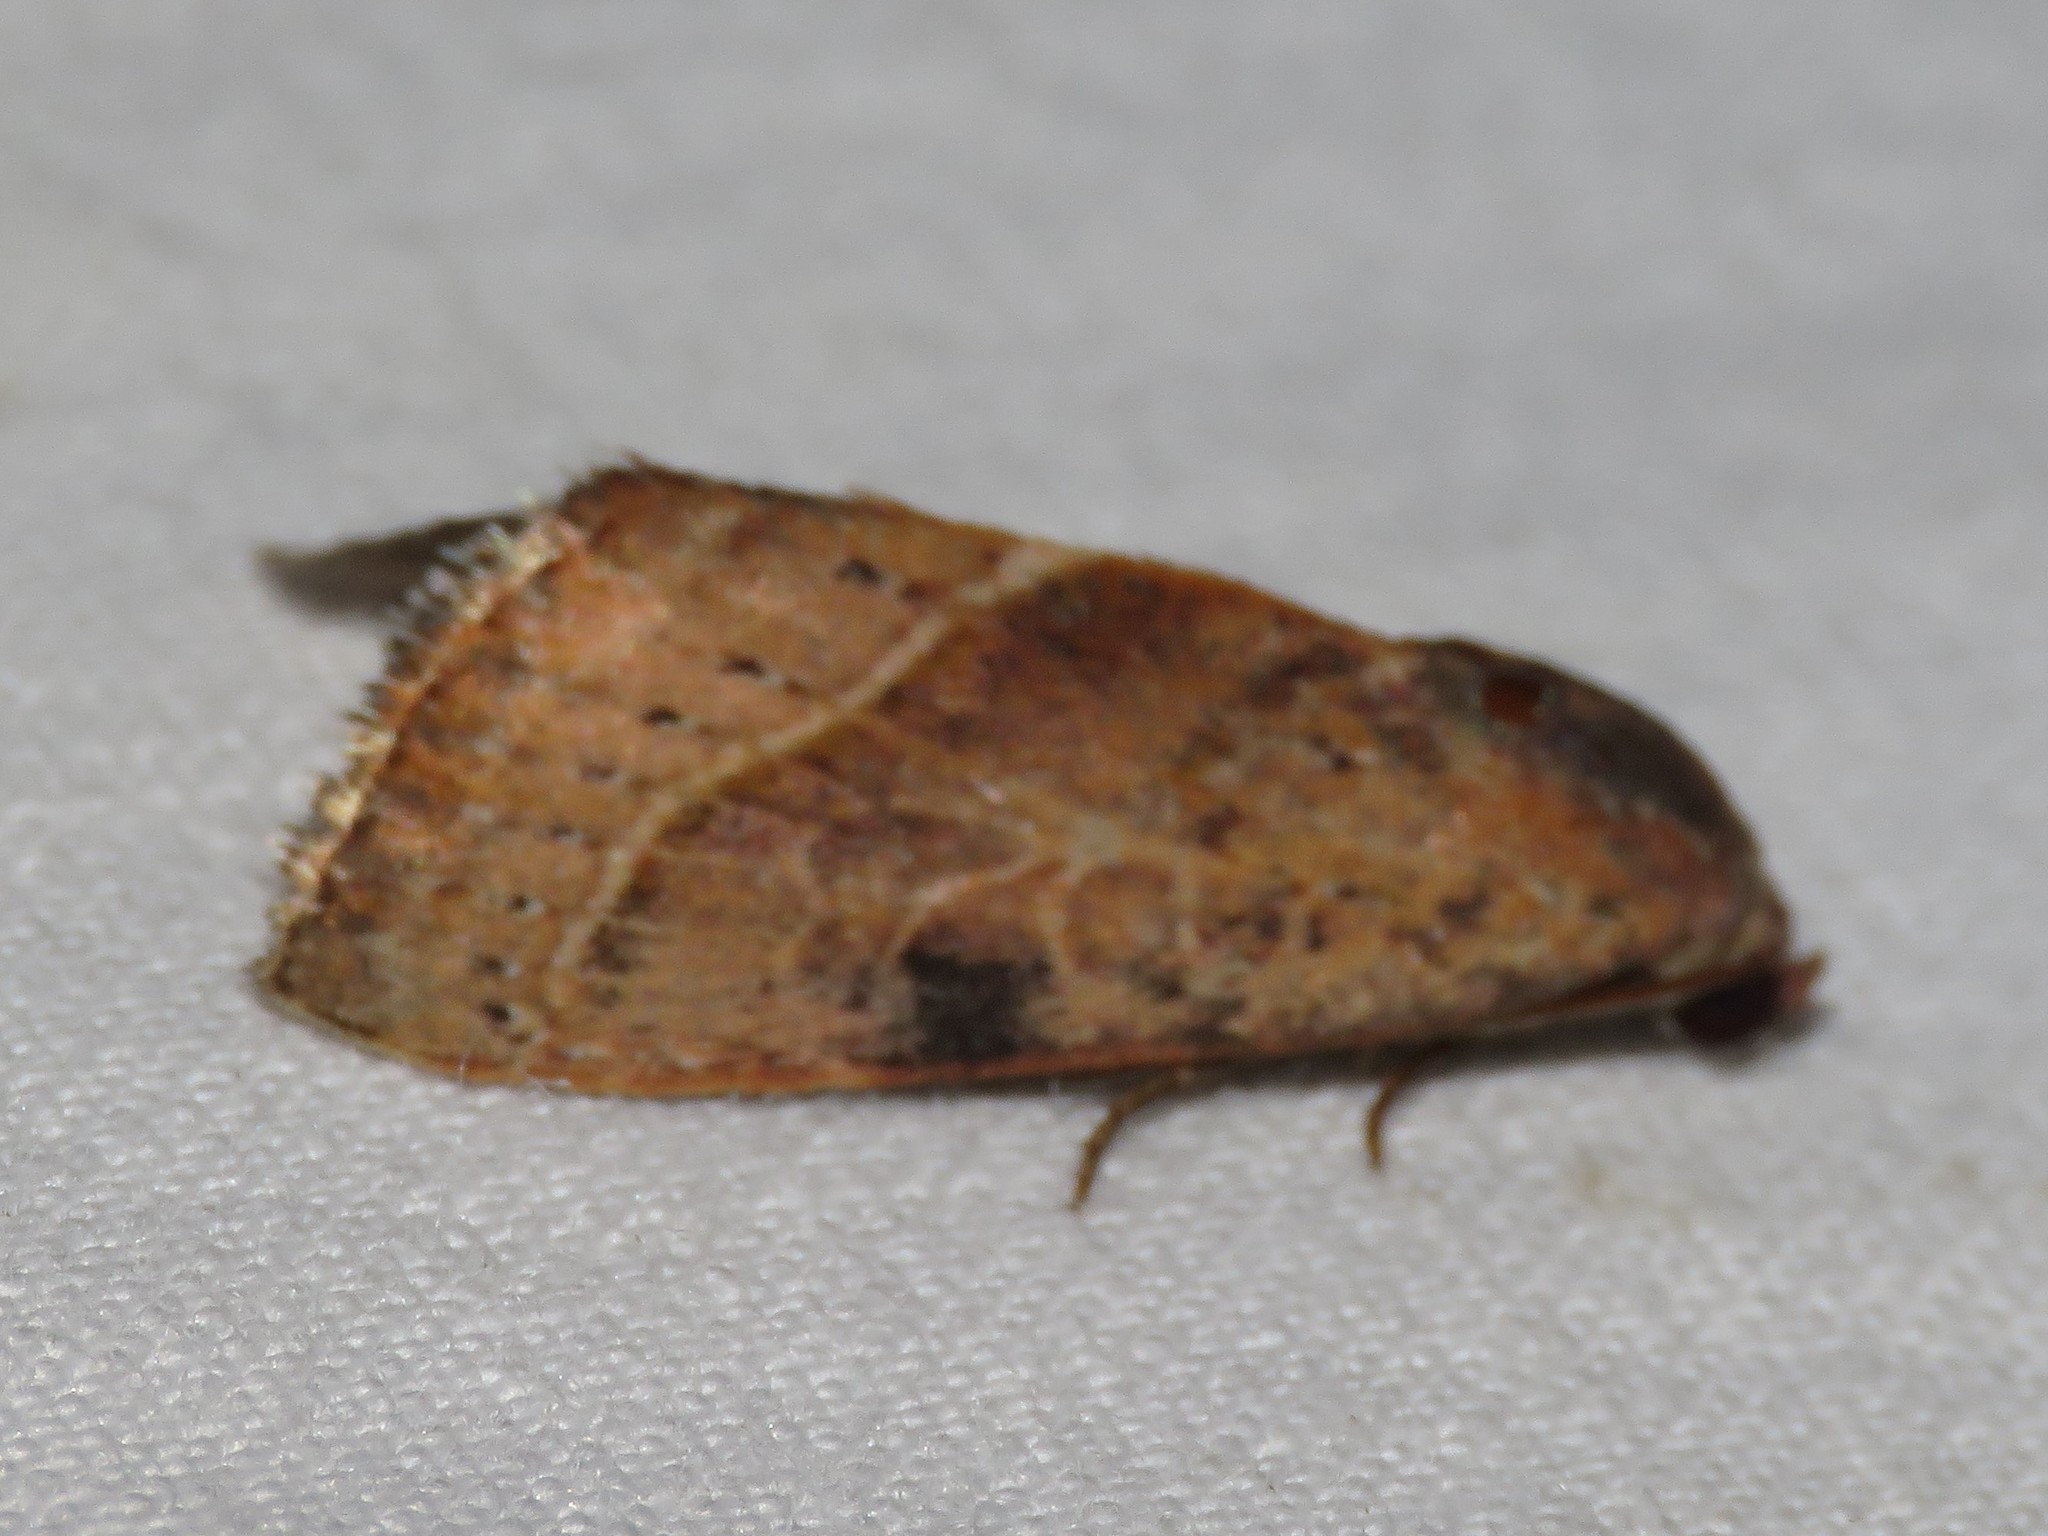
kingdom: Animalia
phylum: Arthropoda
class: Insecta
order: Lepidoptera
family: Noctuidae
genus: Galgula
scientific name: Galgula partita
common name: Wedgeling
